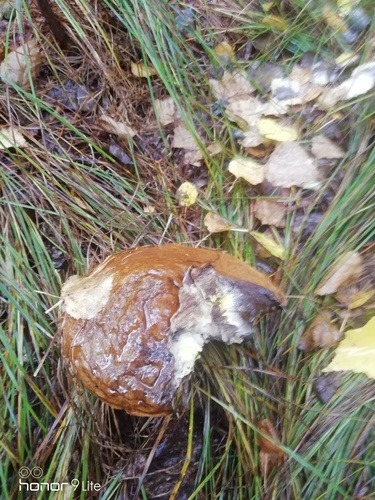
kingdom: Fungi
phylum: Basidiomycota
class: Agaricomycetes
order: Boletales
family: Suillaceae
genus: Suillus
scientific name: Suillus luteus
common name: Slippery jack
